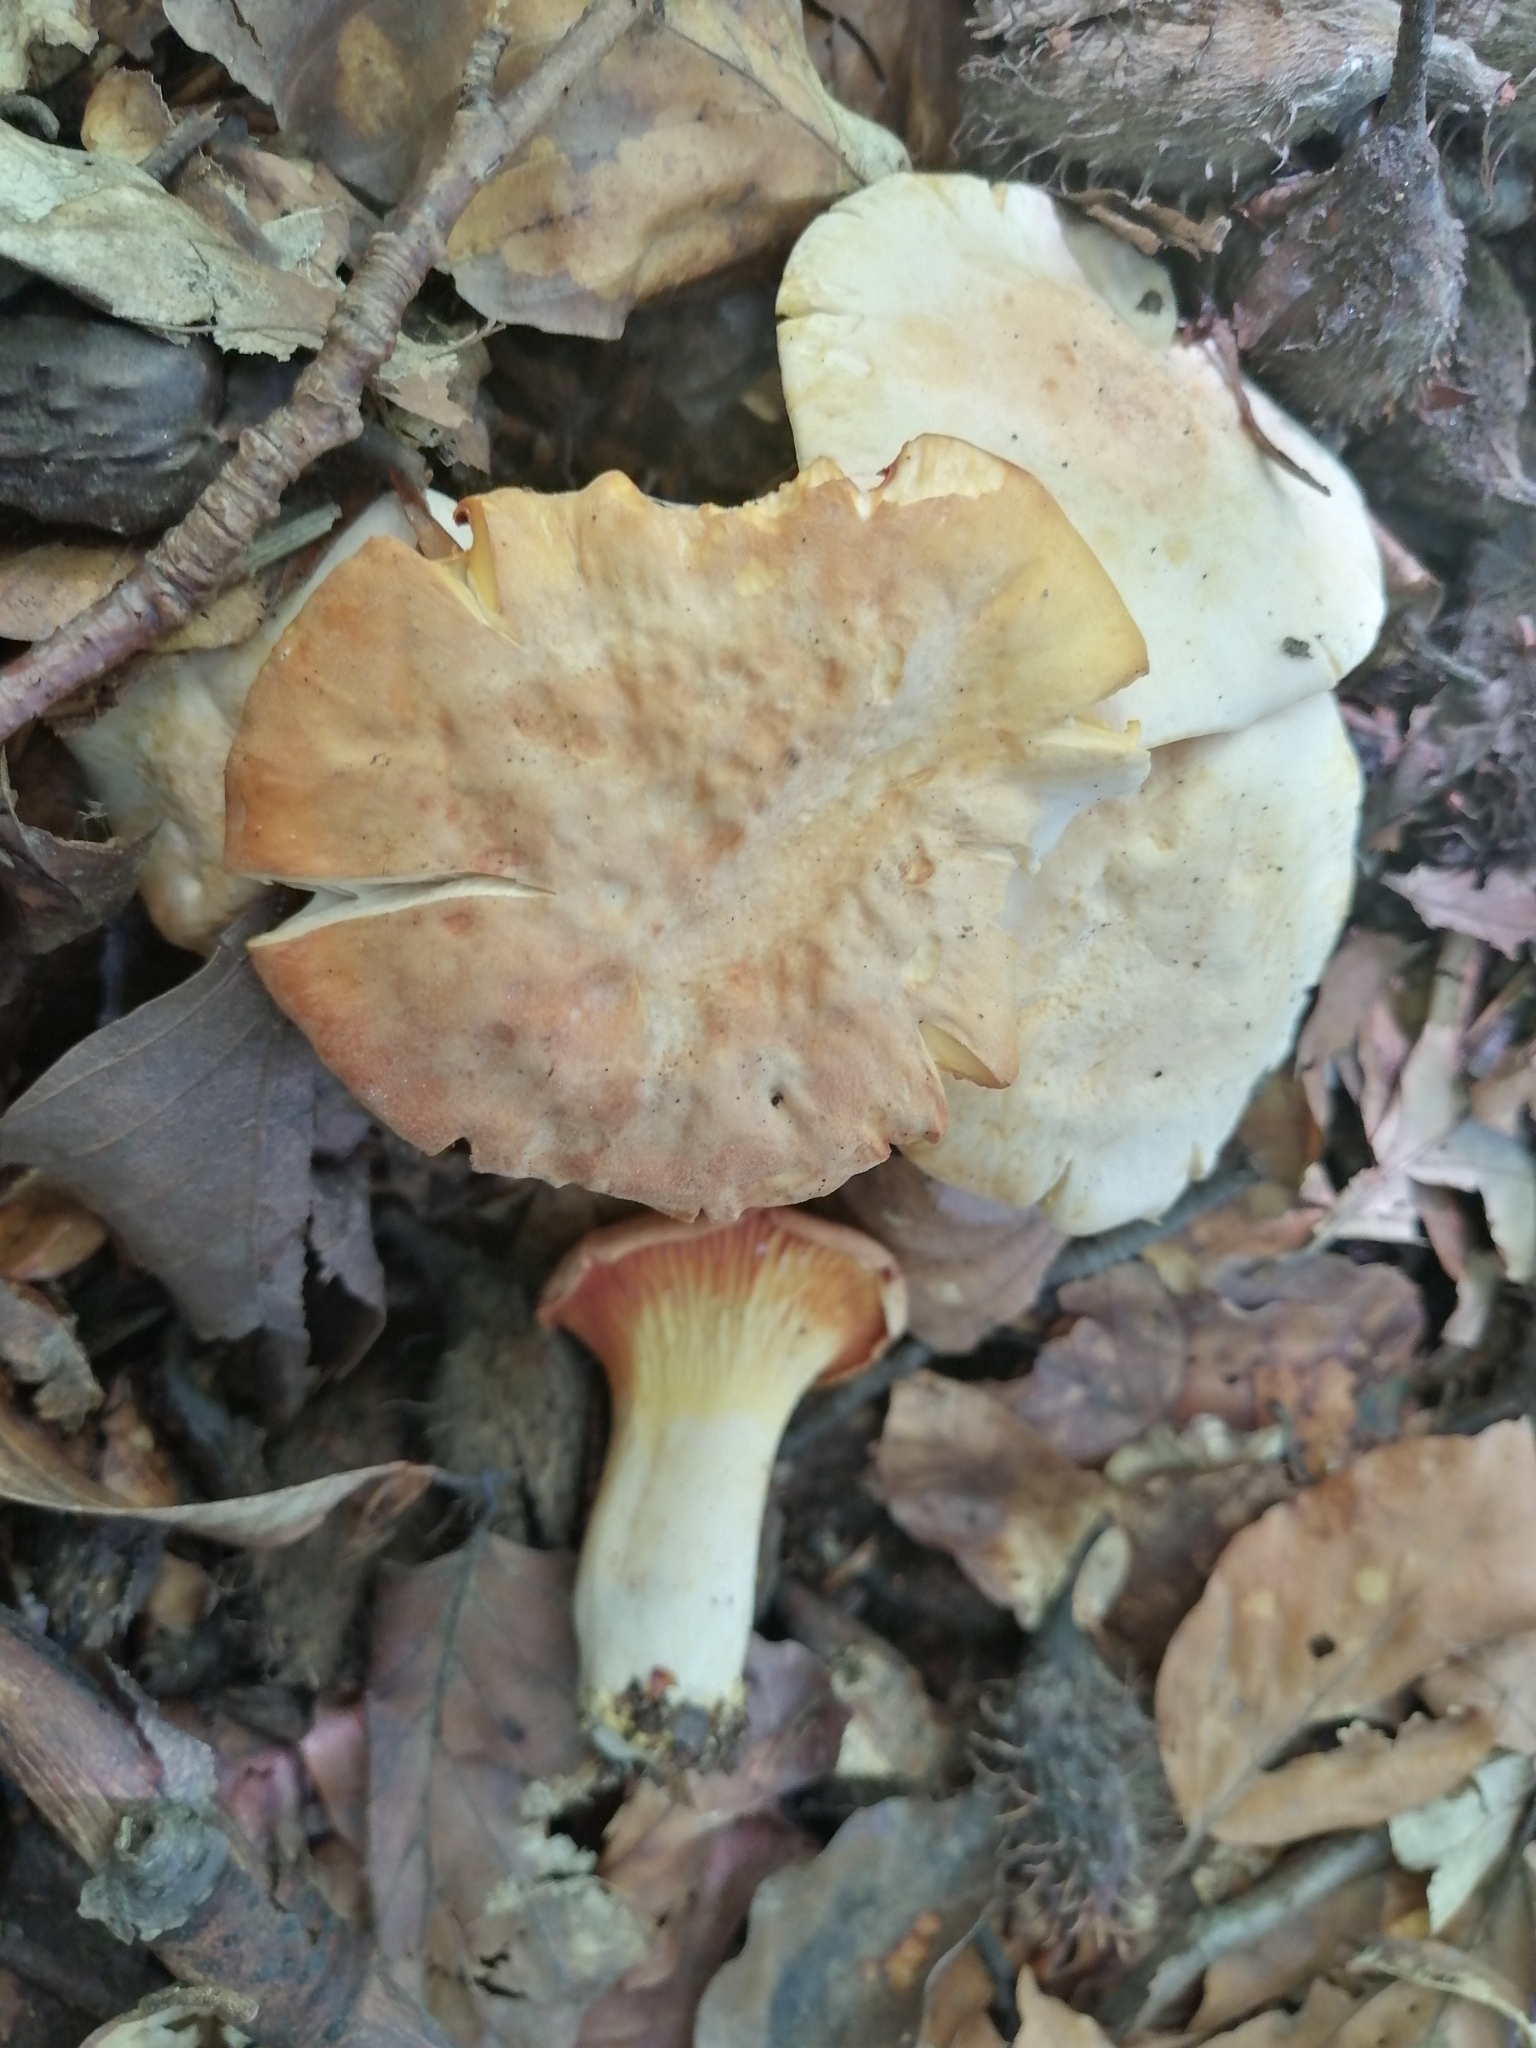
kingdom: Fungi
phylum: Basidiomycota
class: Agaricomycetes
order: Cantharellales
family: Hydnaceae
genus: Cantharellus
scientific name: Cantharellus pallens
